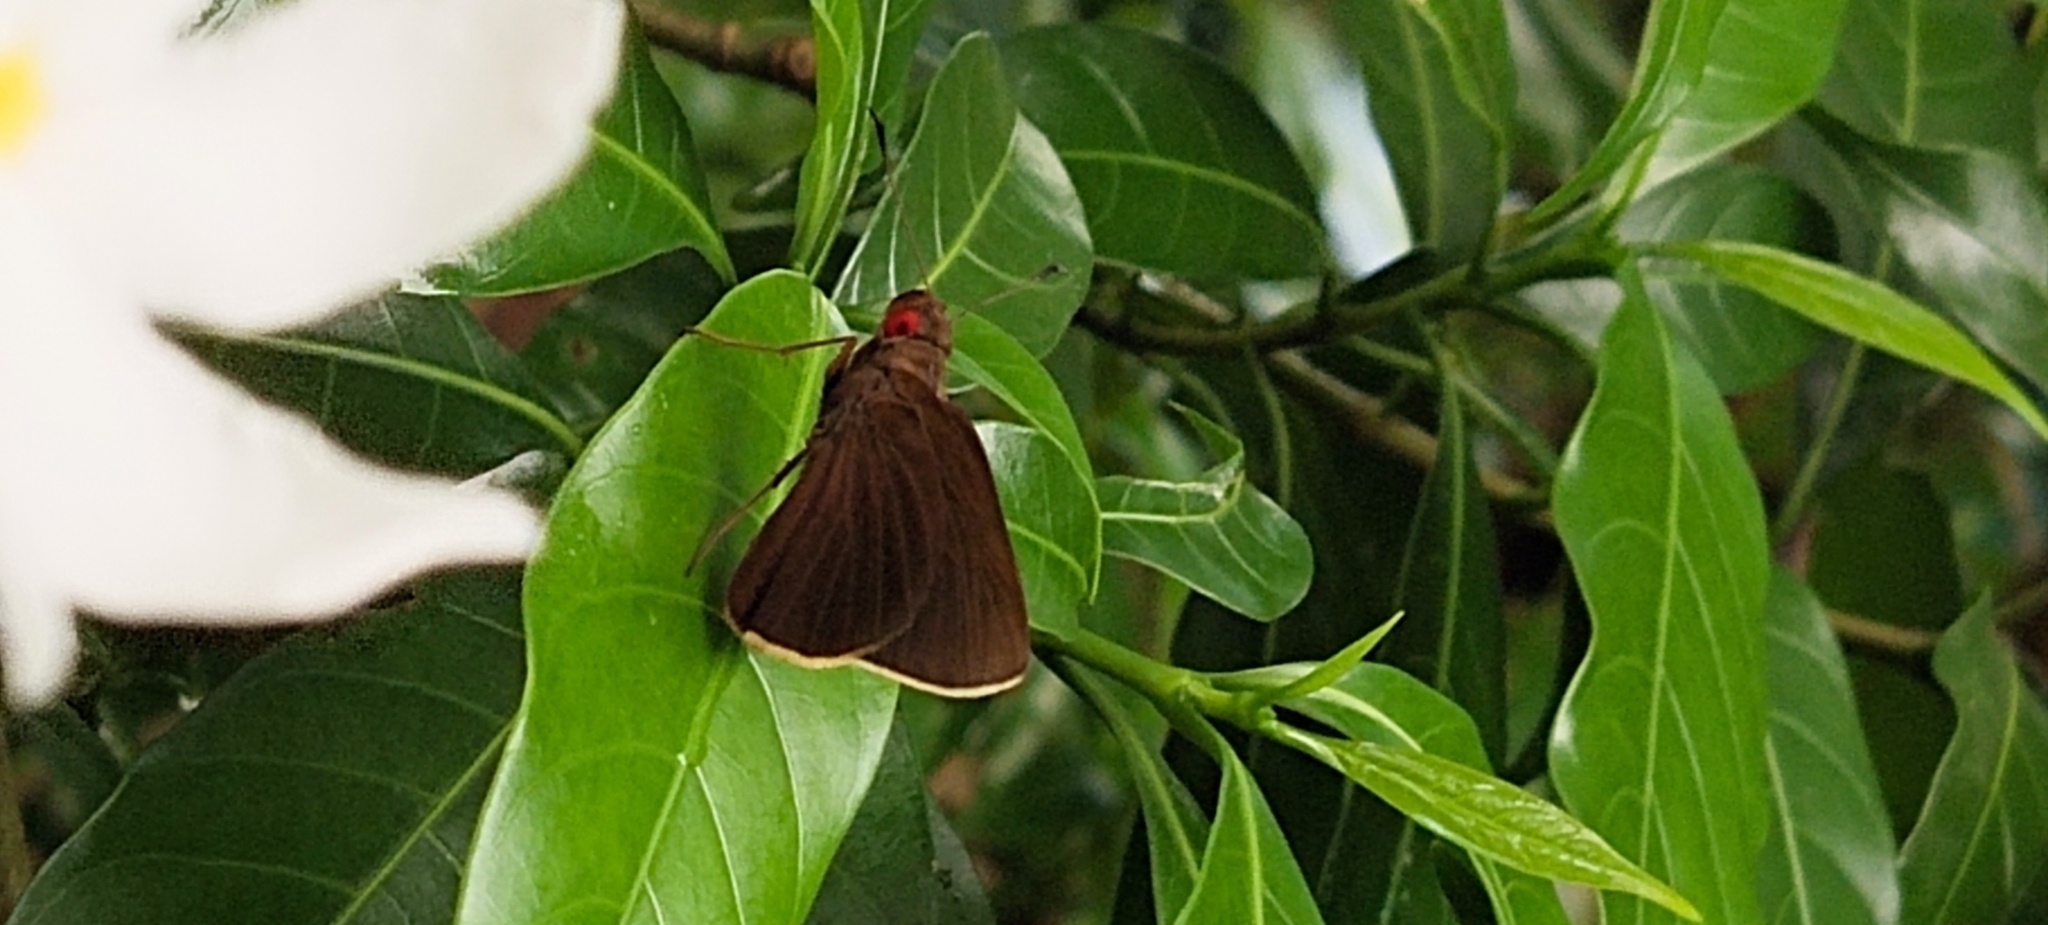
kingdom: Animalia
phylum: Arthropoda
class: Insecta
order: Lepidoptera
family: Hesperiidae
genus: Matapa
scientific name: Matapa aria
